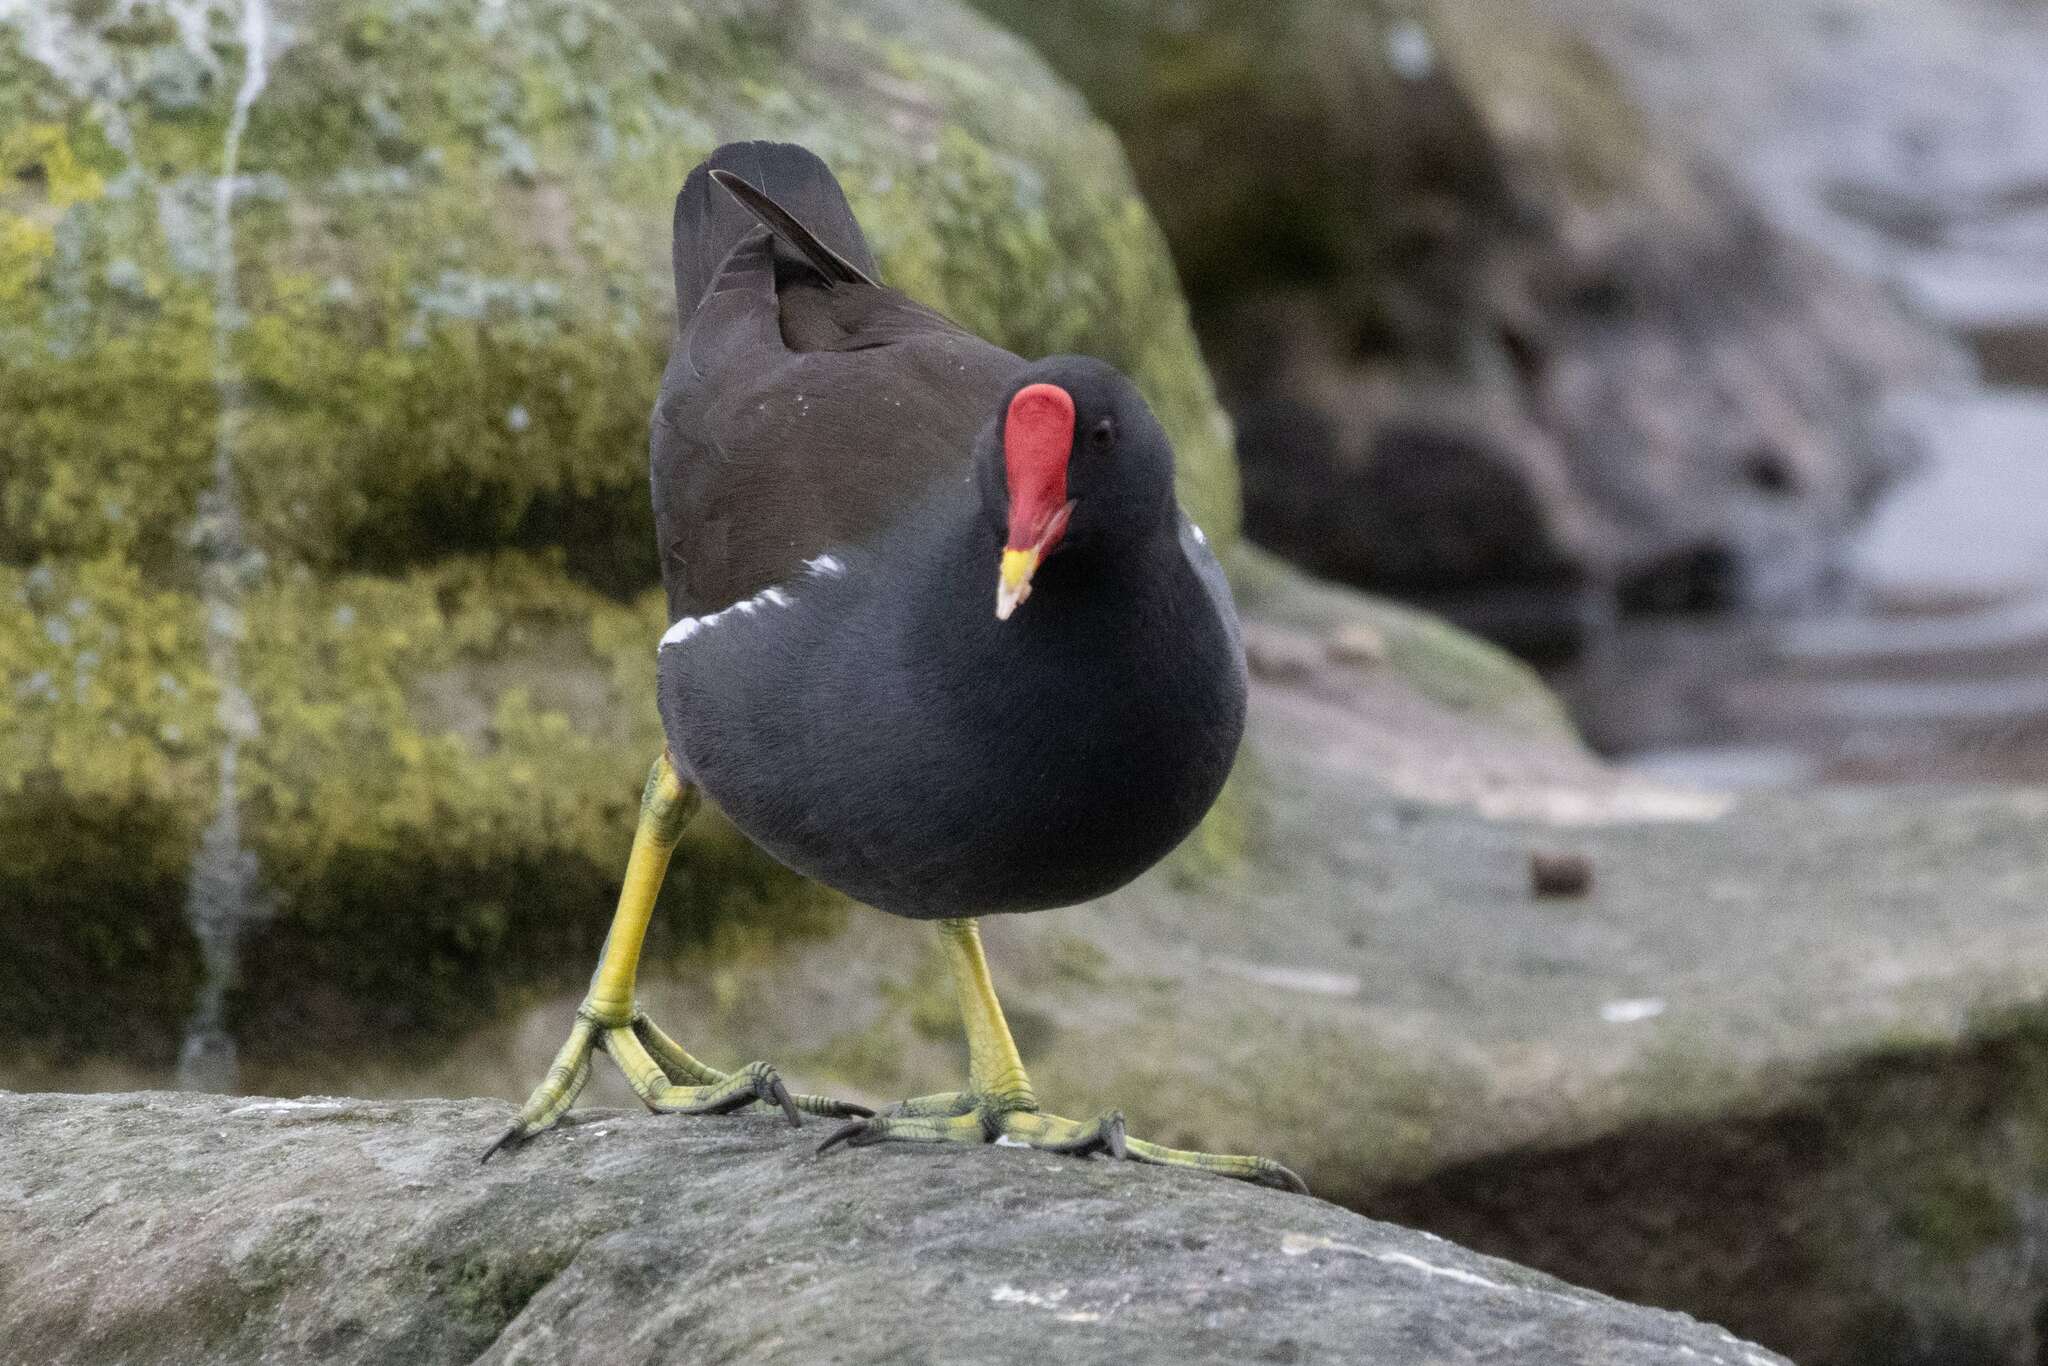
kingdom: Animalia
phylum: Chordata
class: Aves
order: Gruiformes
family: Rallidae
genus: Gallinula
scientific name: Gallinula chloropus
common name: Common moorhen
